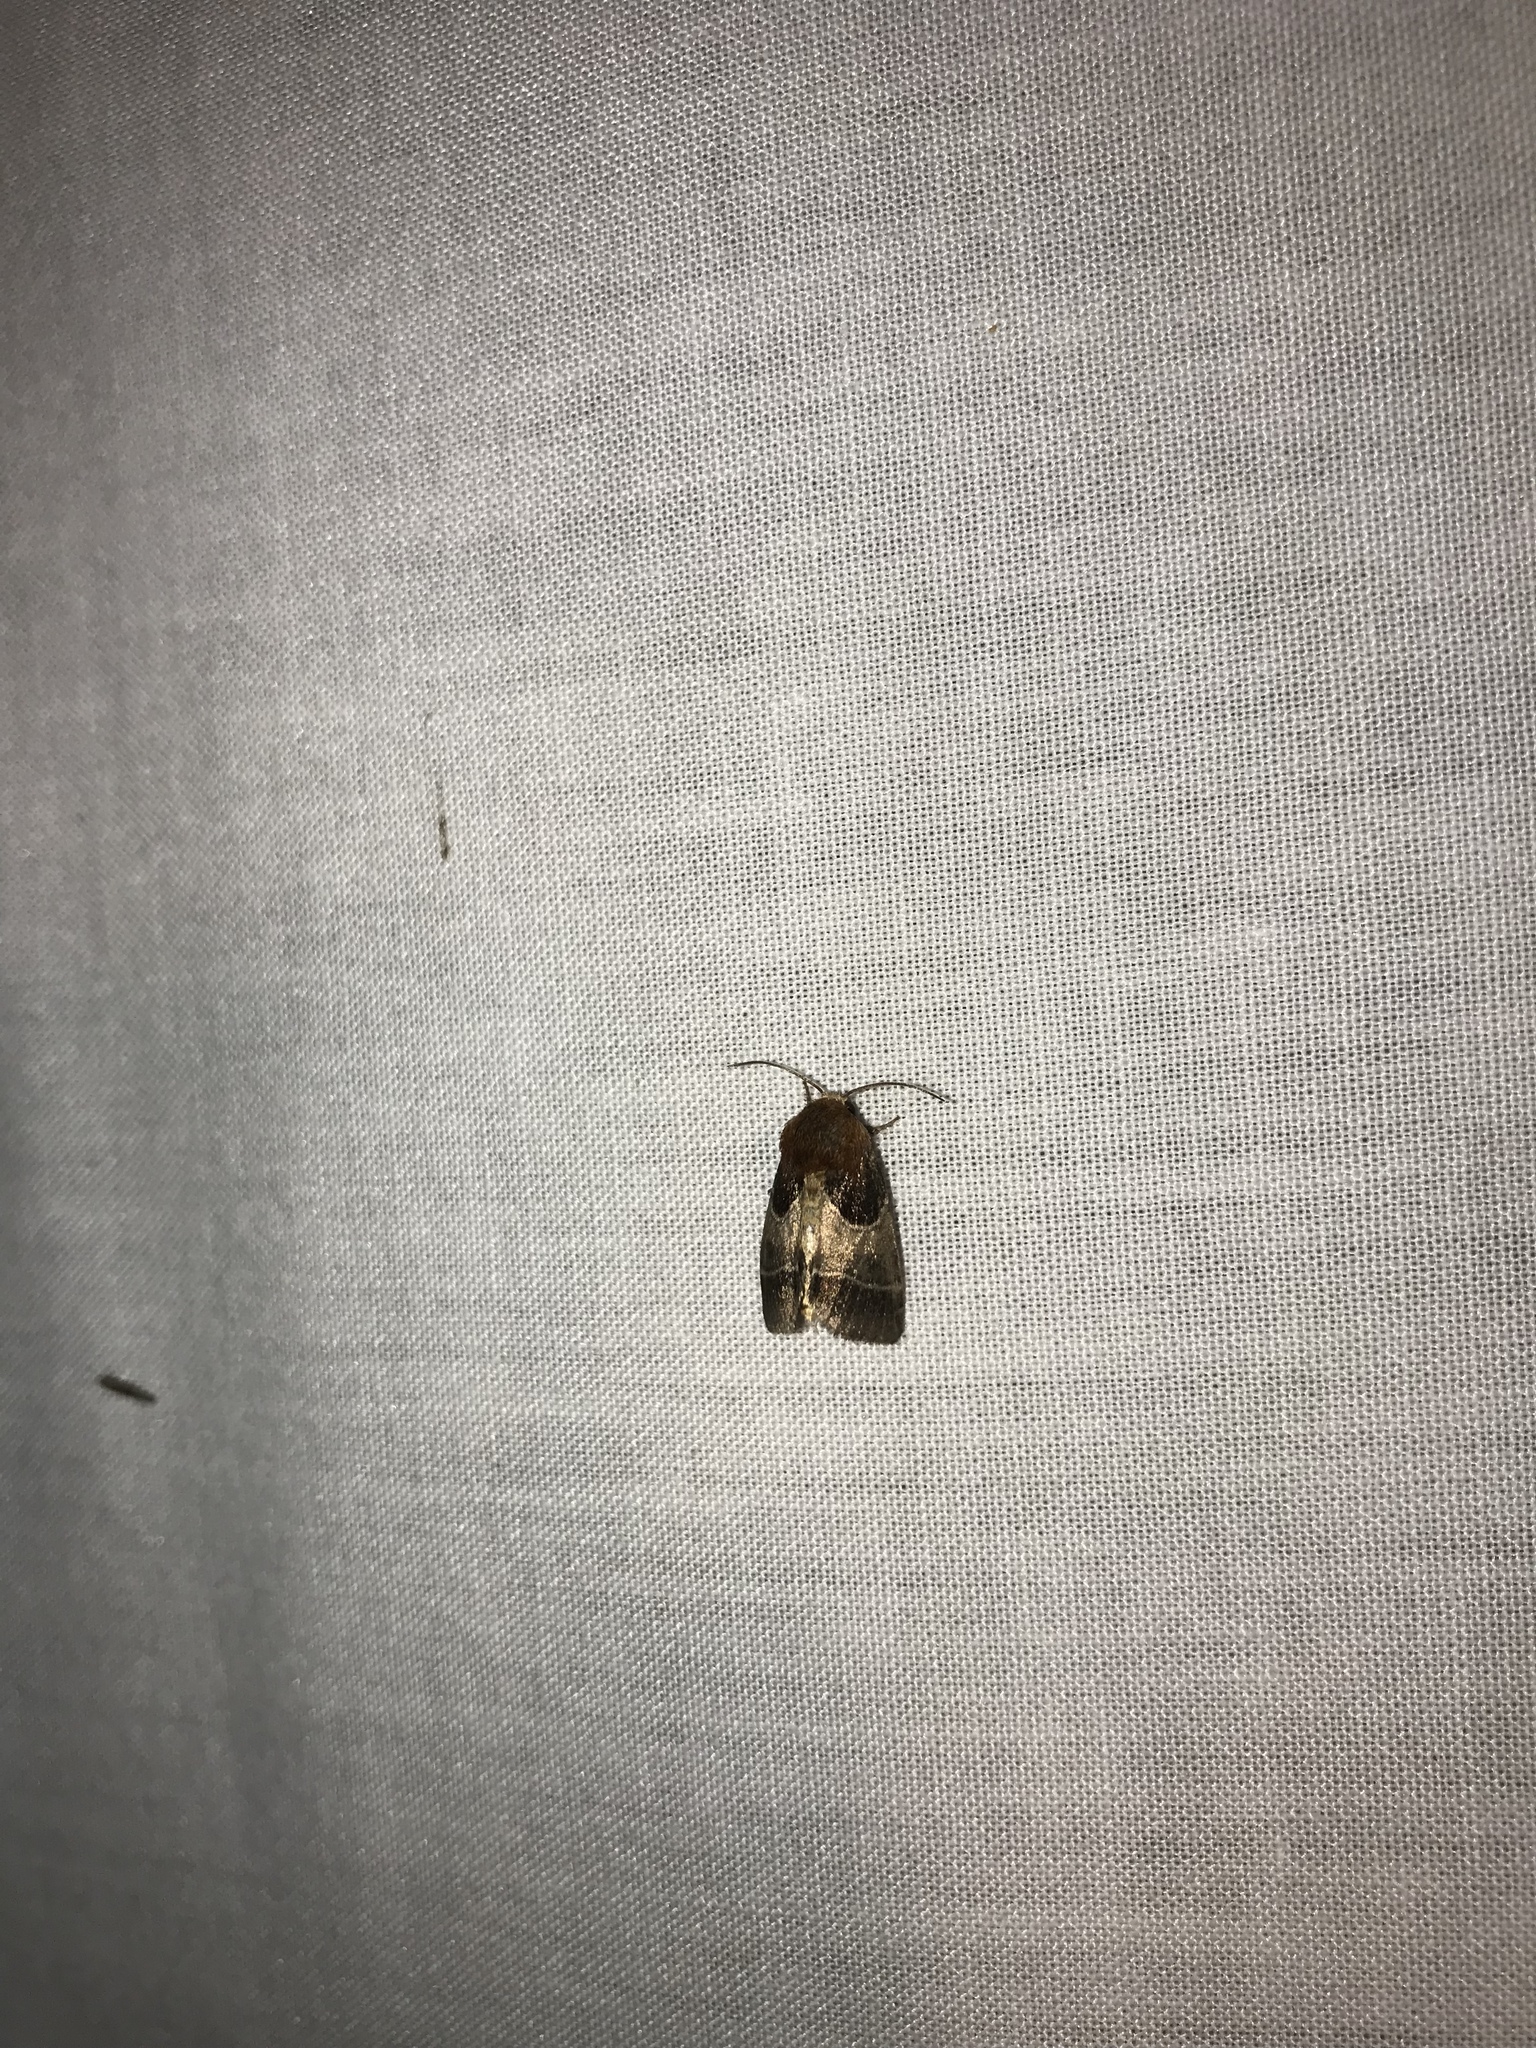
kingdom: Animalia
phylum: Arthropoda
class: Insecta
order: Lepidoptera
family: Noctuidae
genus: Schinia
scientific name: Schinia arcigera
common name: Arcigera flower moth
